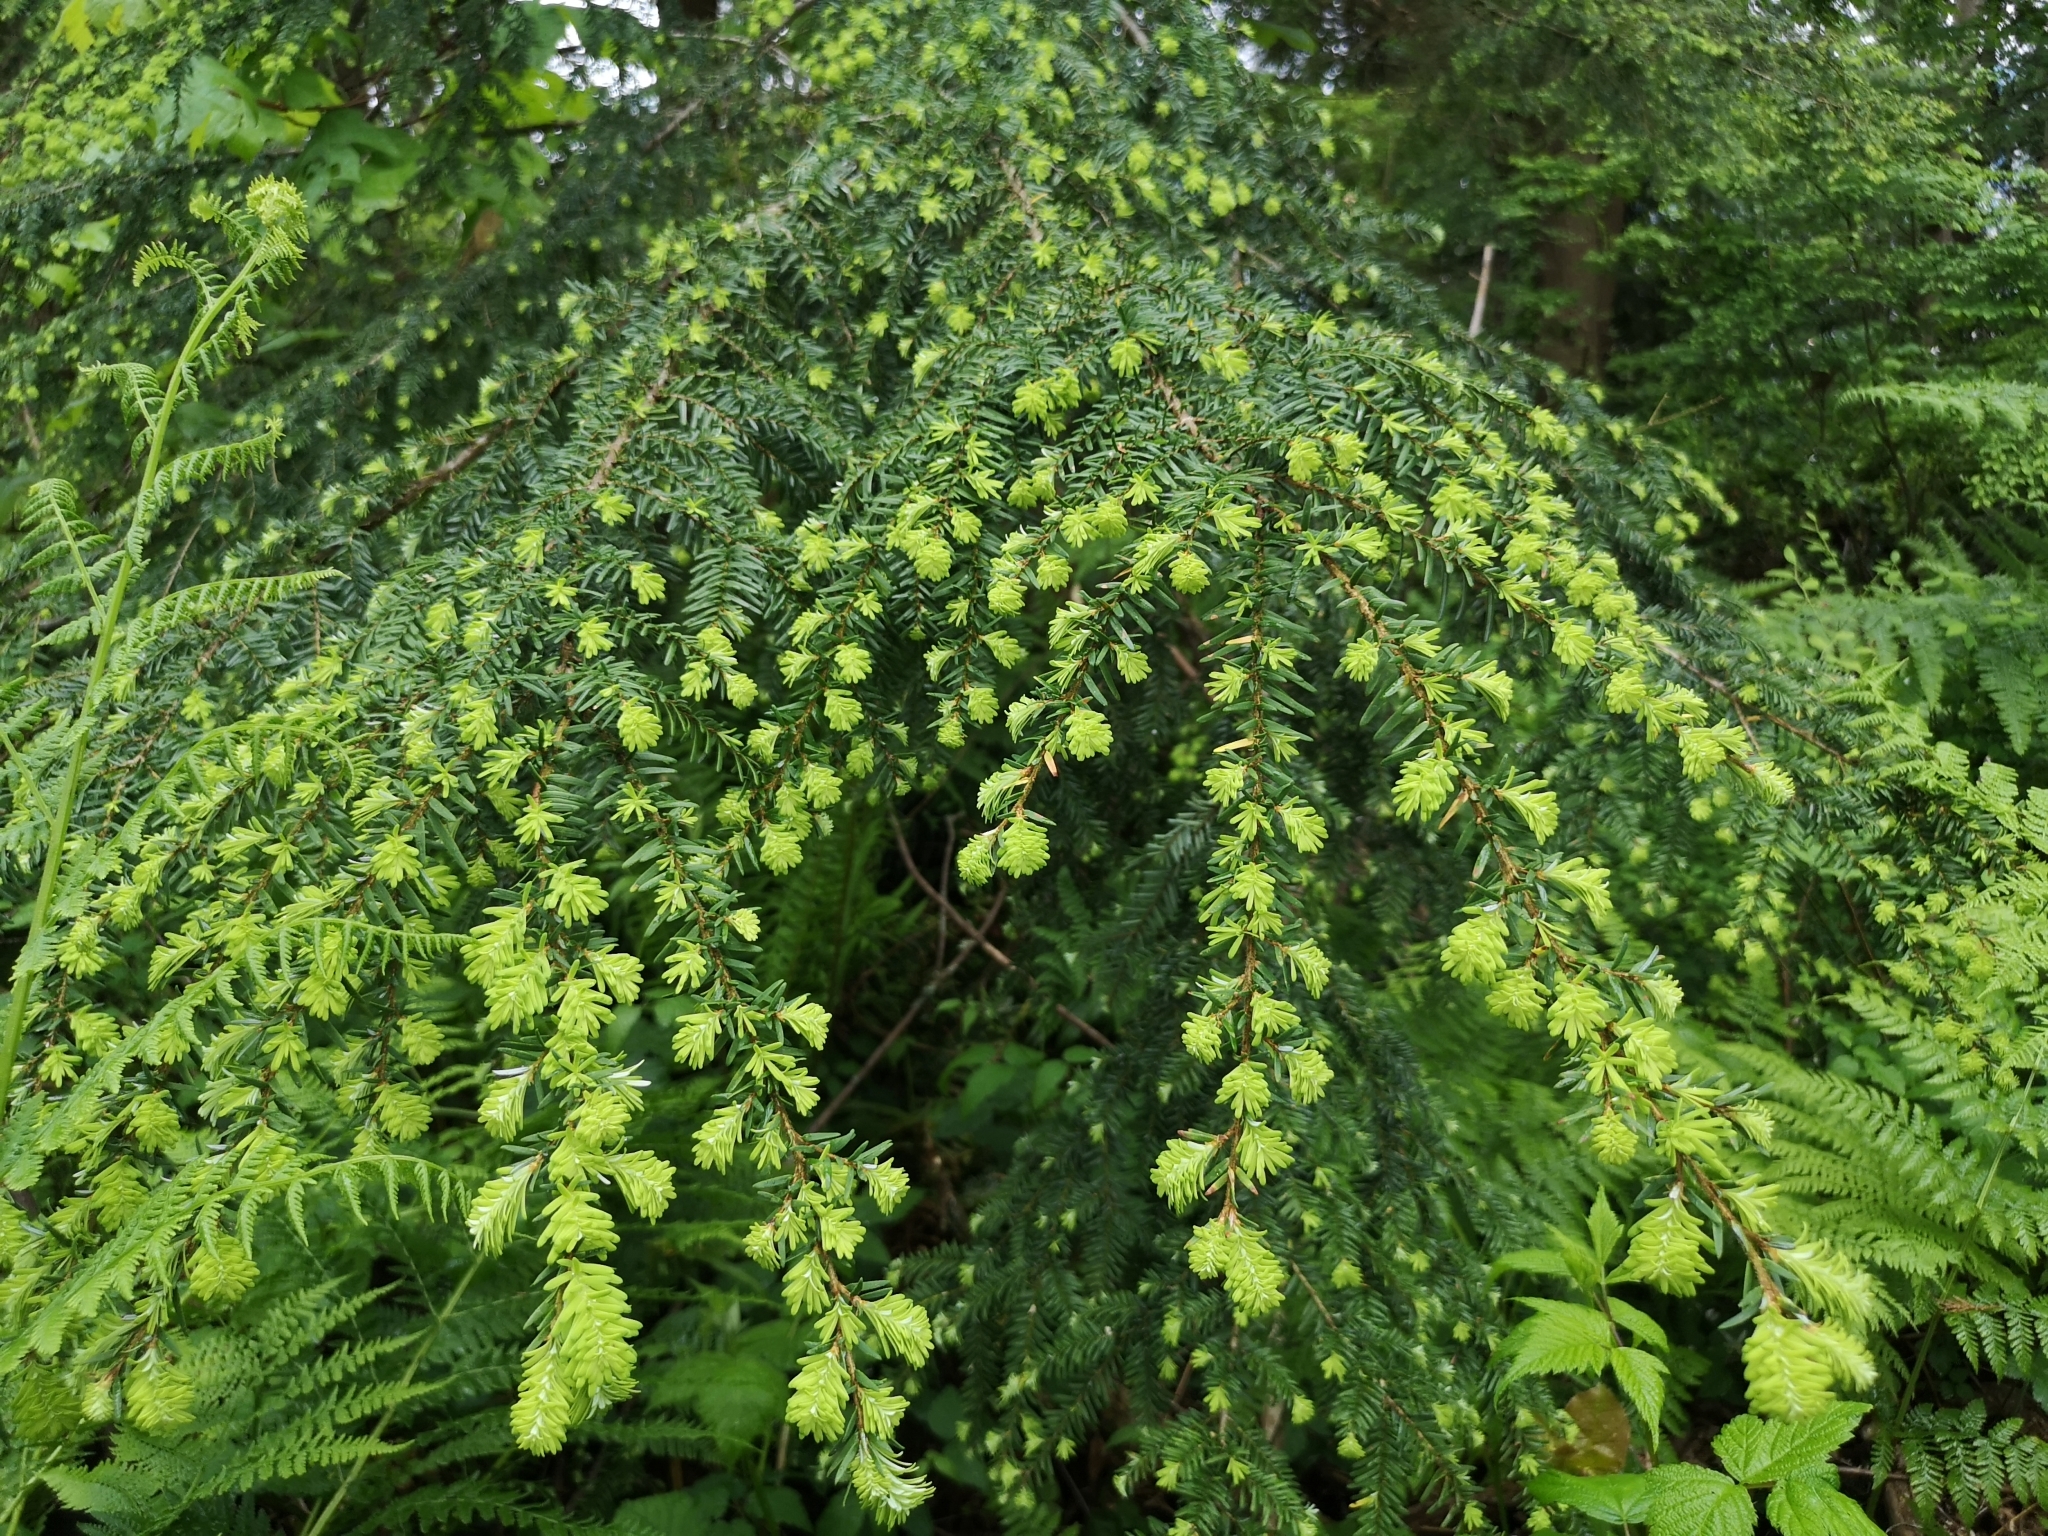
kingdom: Plantae
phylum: Tracheophyta
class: Pinopsida
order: Pinales
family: Pinaceae
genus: Tsuga
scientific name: Tsuga heterophylla
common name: Western hemlock
